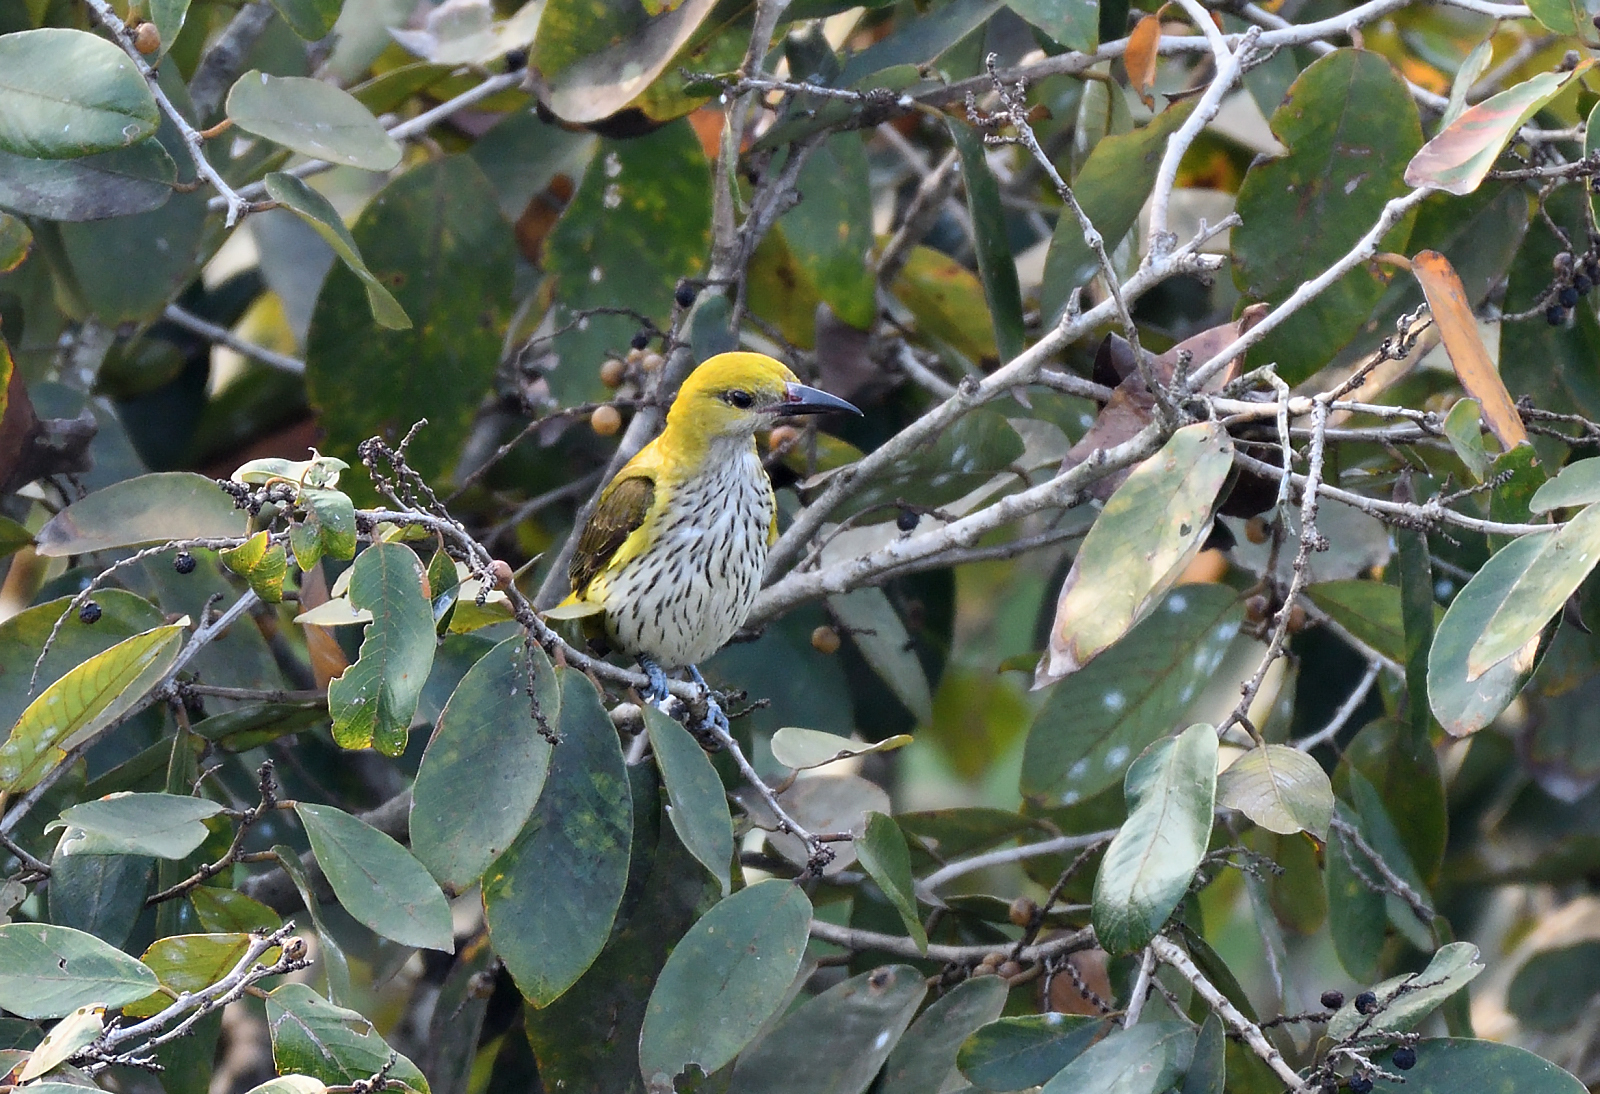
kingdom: Animalia
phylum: Chordata
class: Aves
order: Passeriformes
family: Oriolidae
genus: Oriolus
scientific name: Oriolus kundoo
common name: Indian golden oriole
